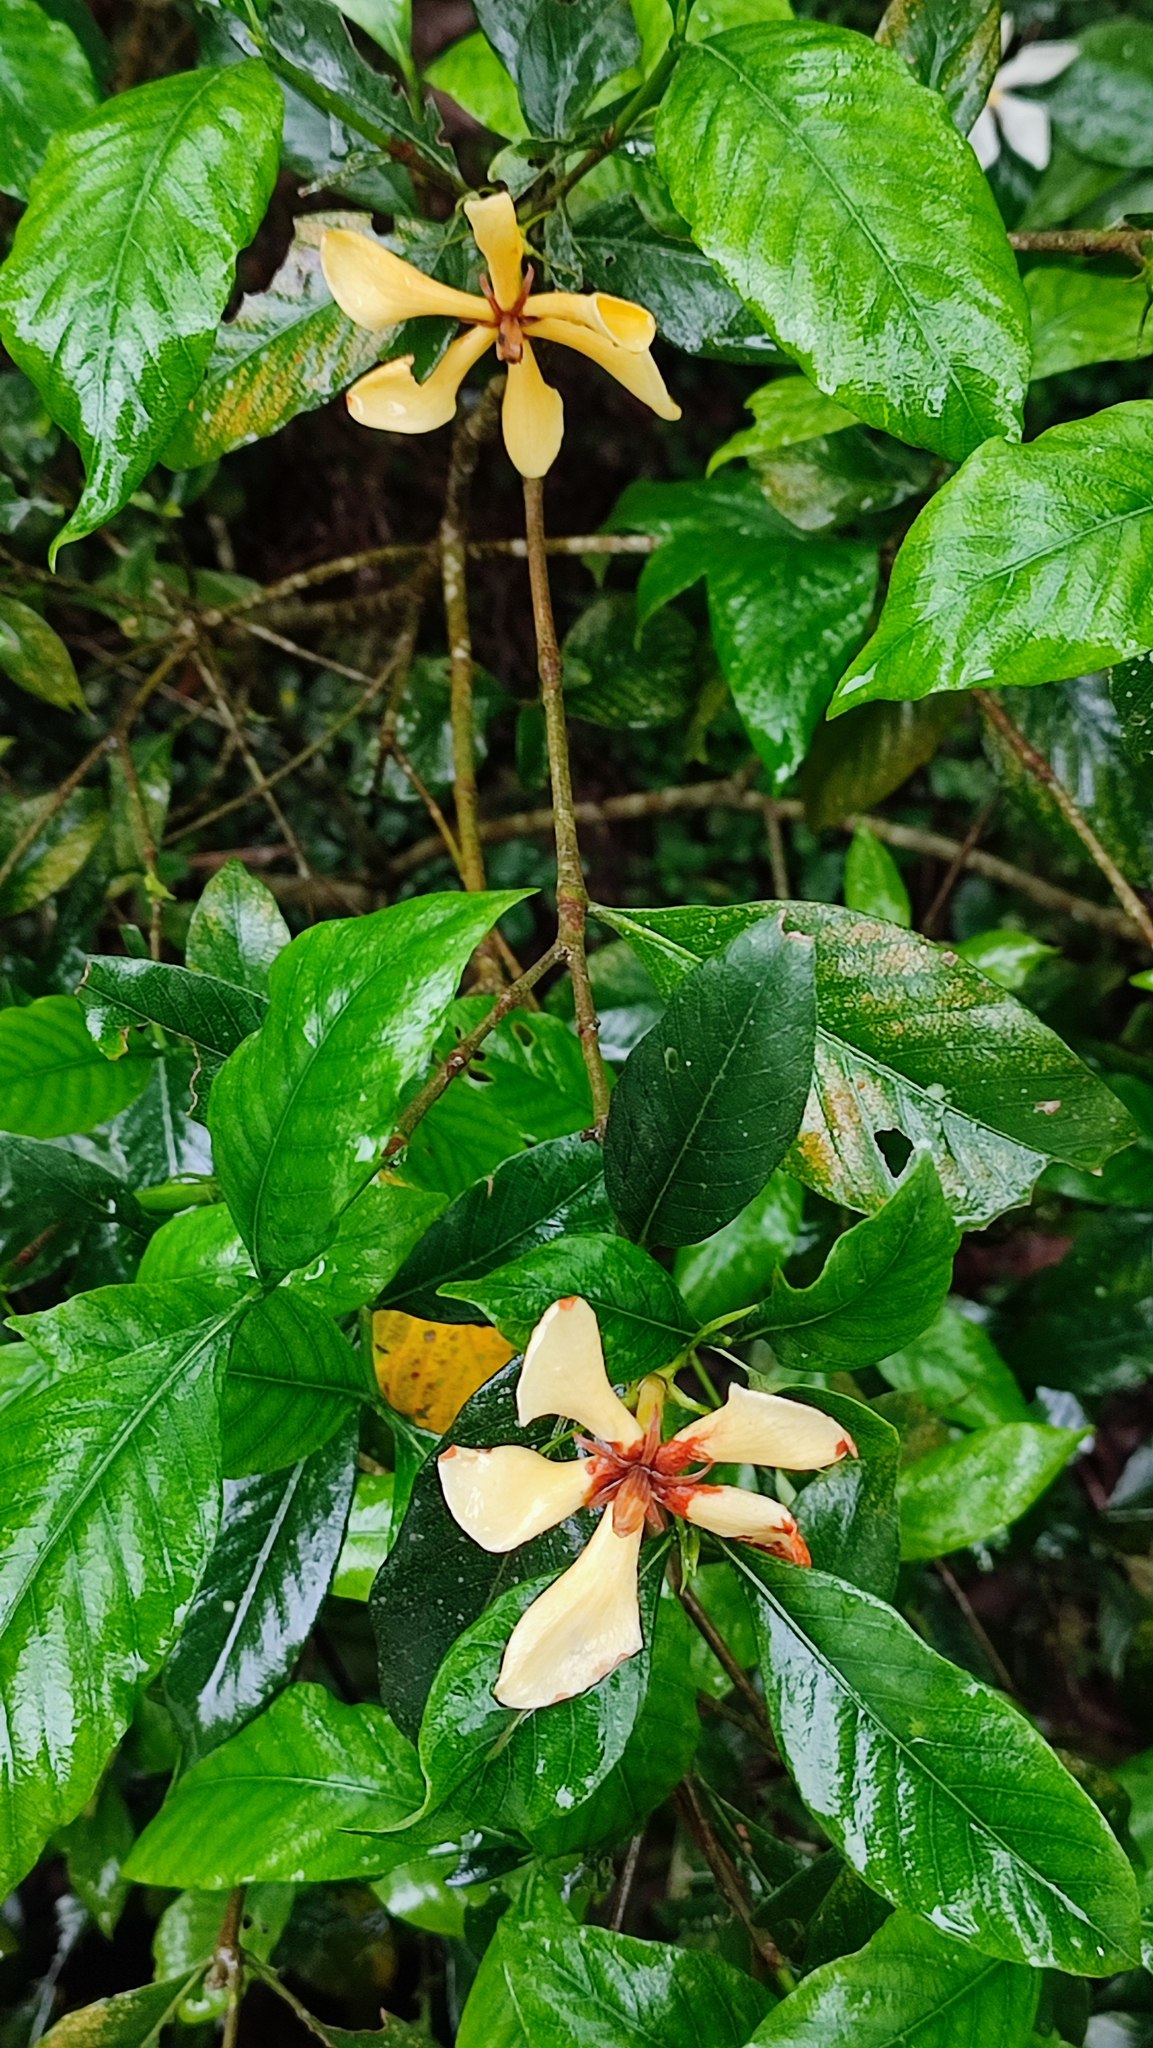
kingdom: Plantae
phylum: Tracheophyta
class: Magnoliopsida
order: Gentianales
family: Rubiaceae
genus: Gardenia
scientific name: Gardenia jasminoides
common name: Cape-jasmine
